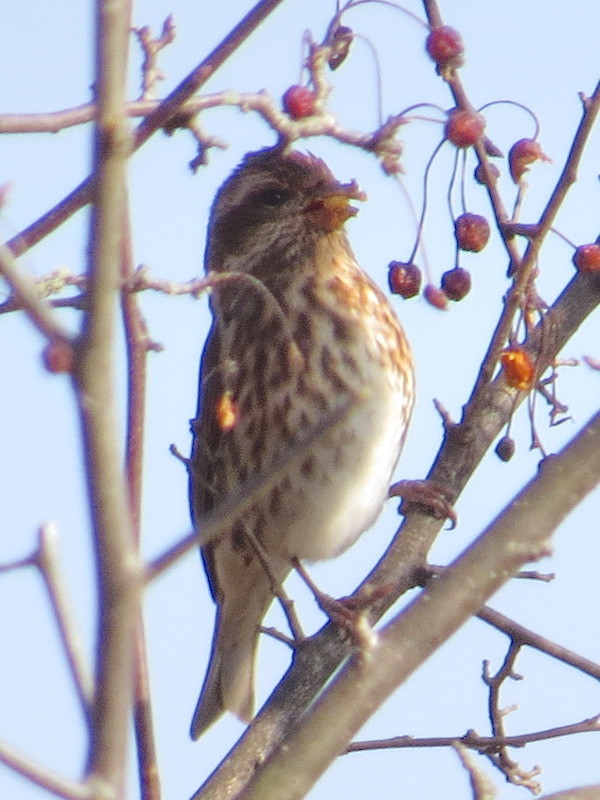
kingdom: Animalia
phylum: Chordata
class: Aves
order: Passeriformes
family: Fringillidae
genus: Haemorhous
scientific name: Haemorhous purpureus
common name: Purple finch
